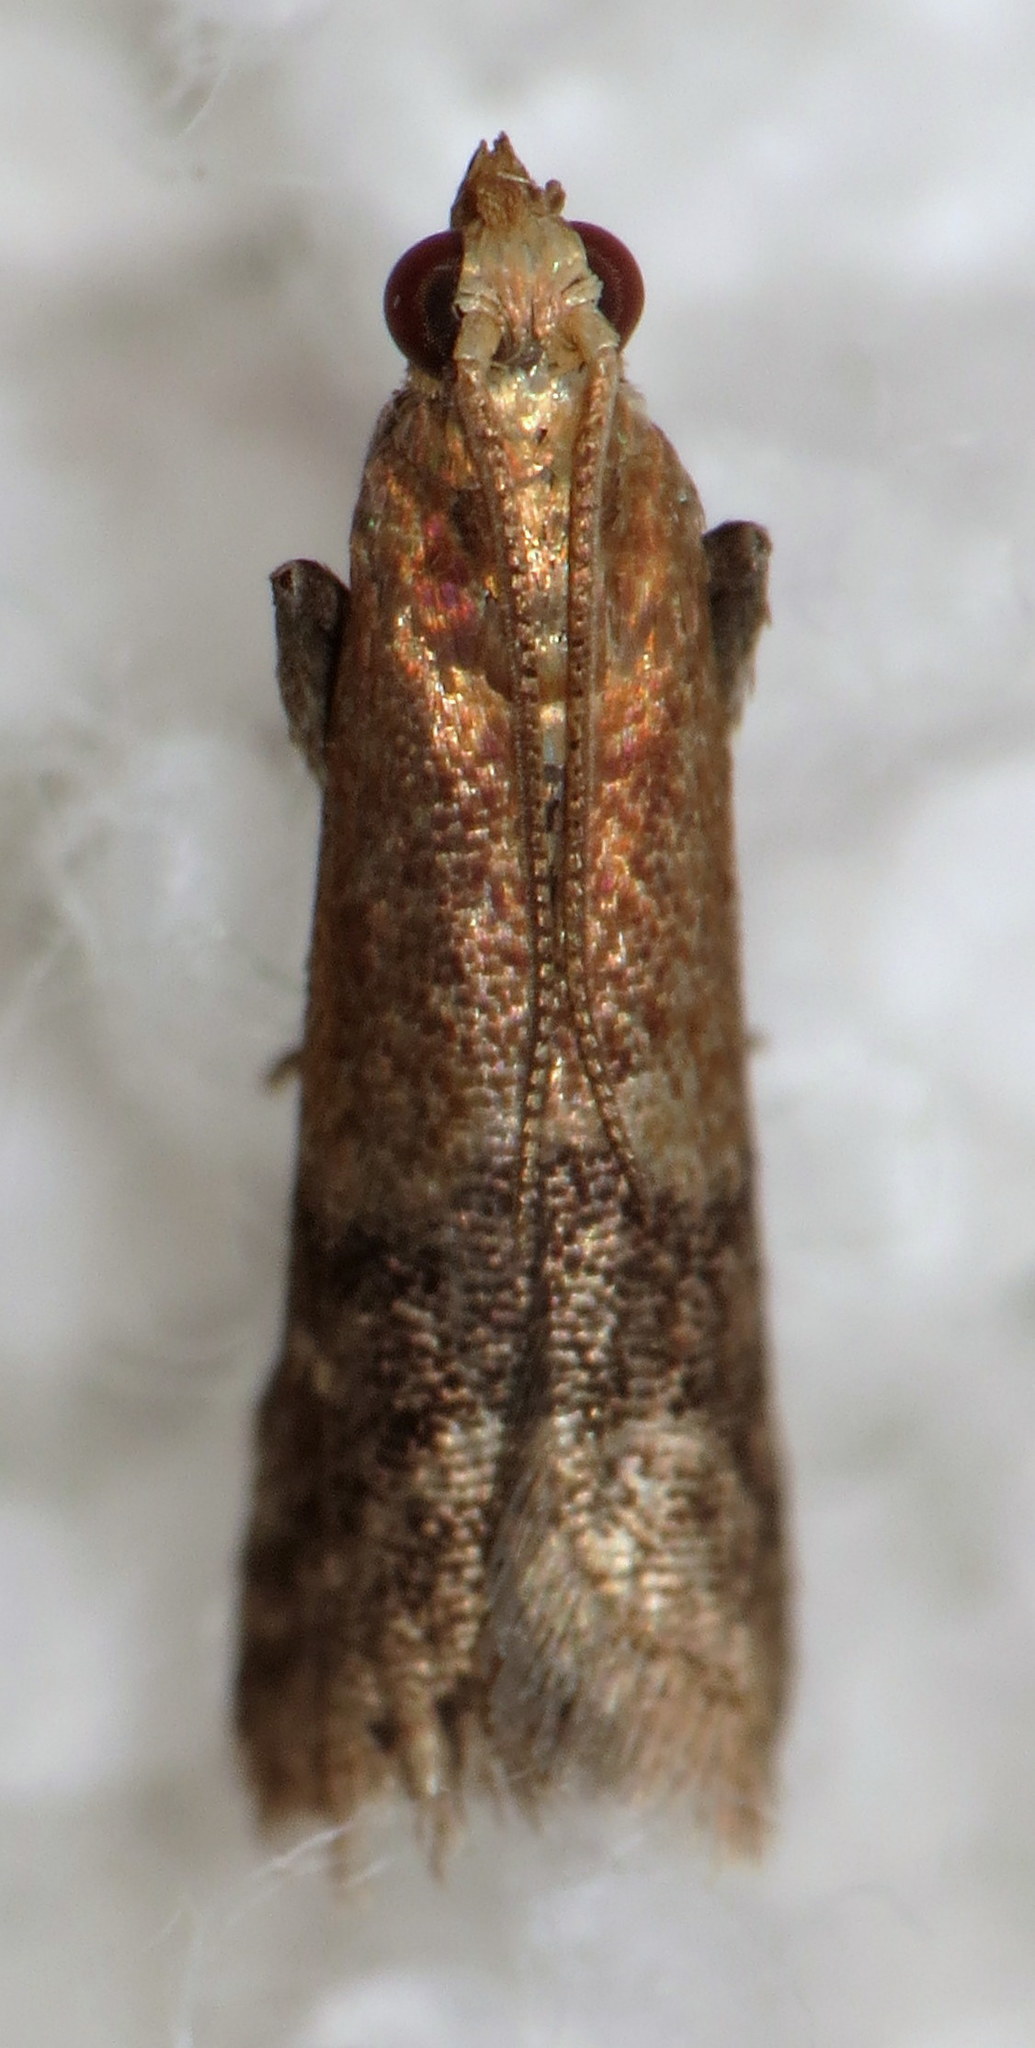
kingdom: Animalia
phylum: Arthropoda
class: Insecta
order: Lepidoptera
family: Pyralidae
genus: Eulogia
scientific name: Eulogia ochrifrontella
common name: Broad-banded eulogia moth
